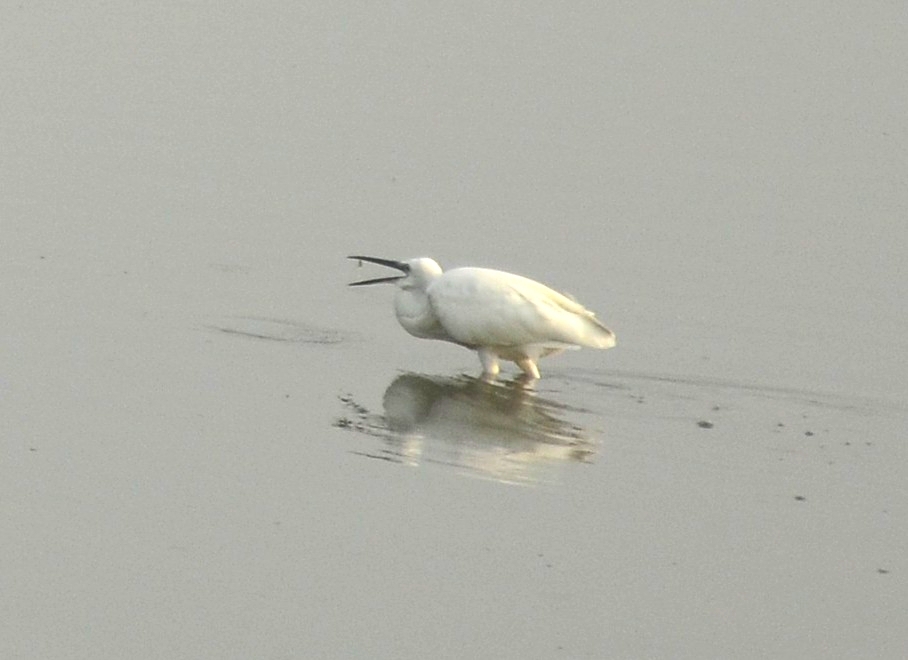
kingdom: Animalia
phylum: Chordata
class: Aves
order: Pelecaniformes
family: Ardeidae
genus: Egretta
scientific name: Egretta garzetta
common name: Little egret
